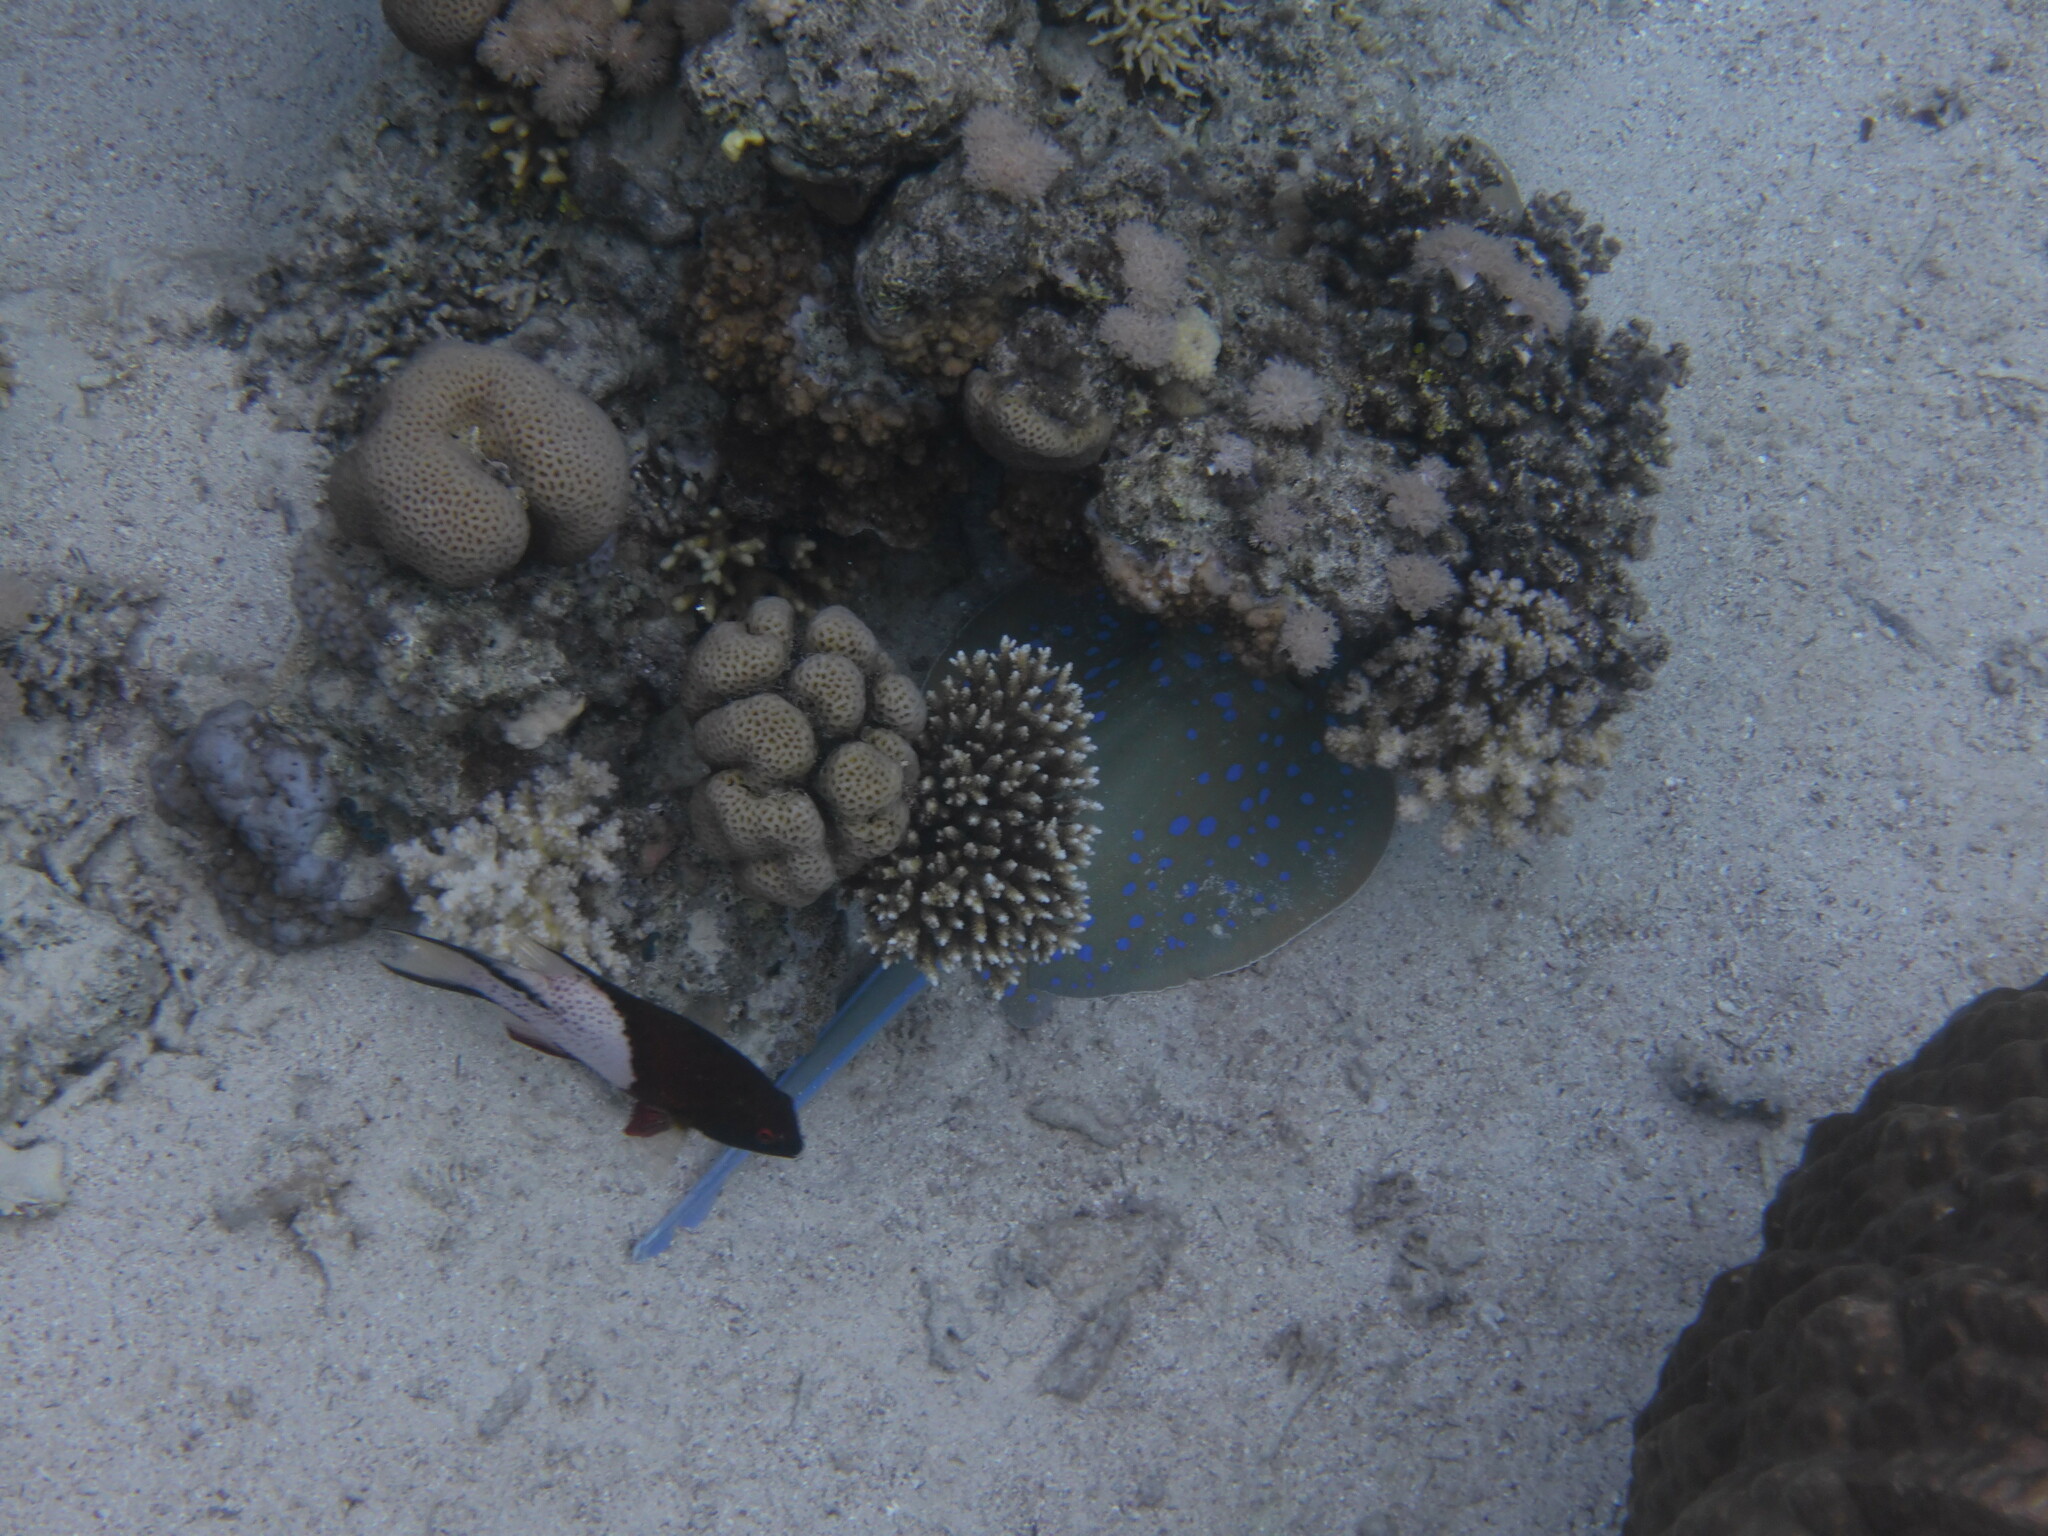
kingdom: Animalia
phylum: Chordata
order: Perciformes
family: Labridae
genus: Bodianus
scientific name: Bodianus anthioides
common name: Lyretail hogfish
